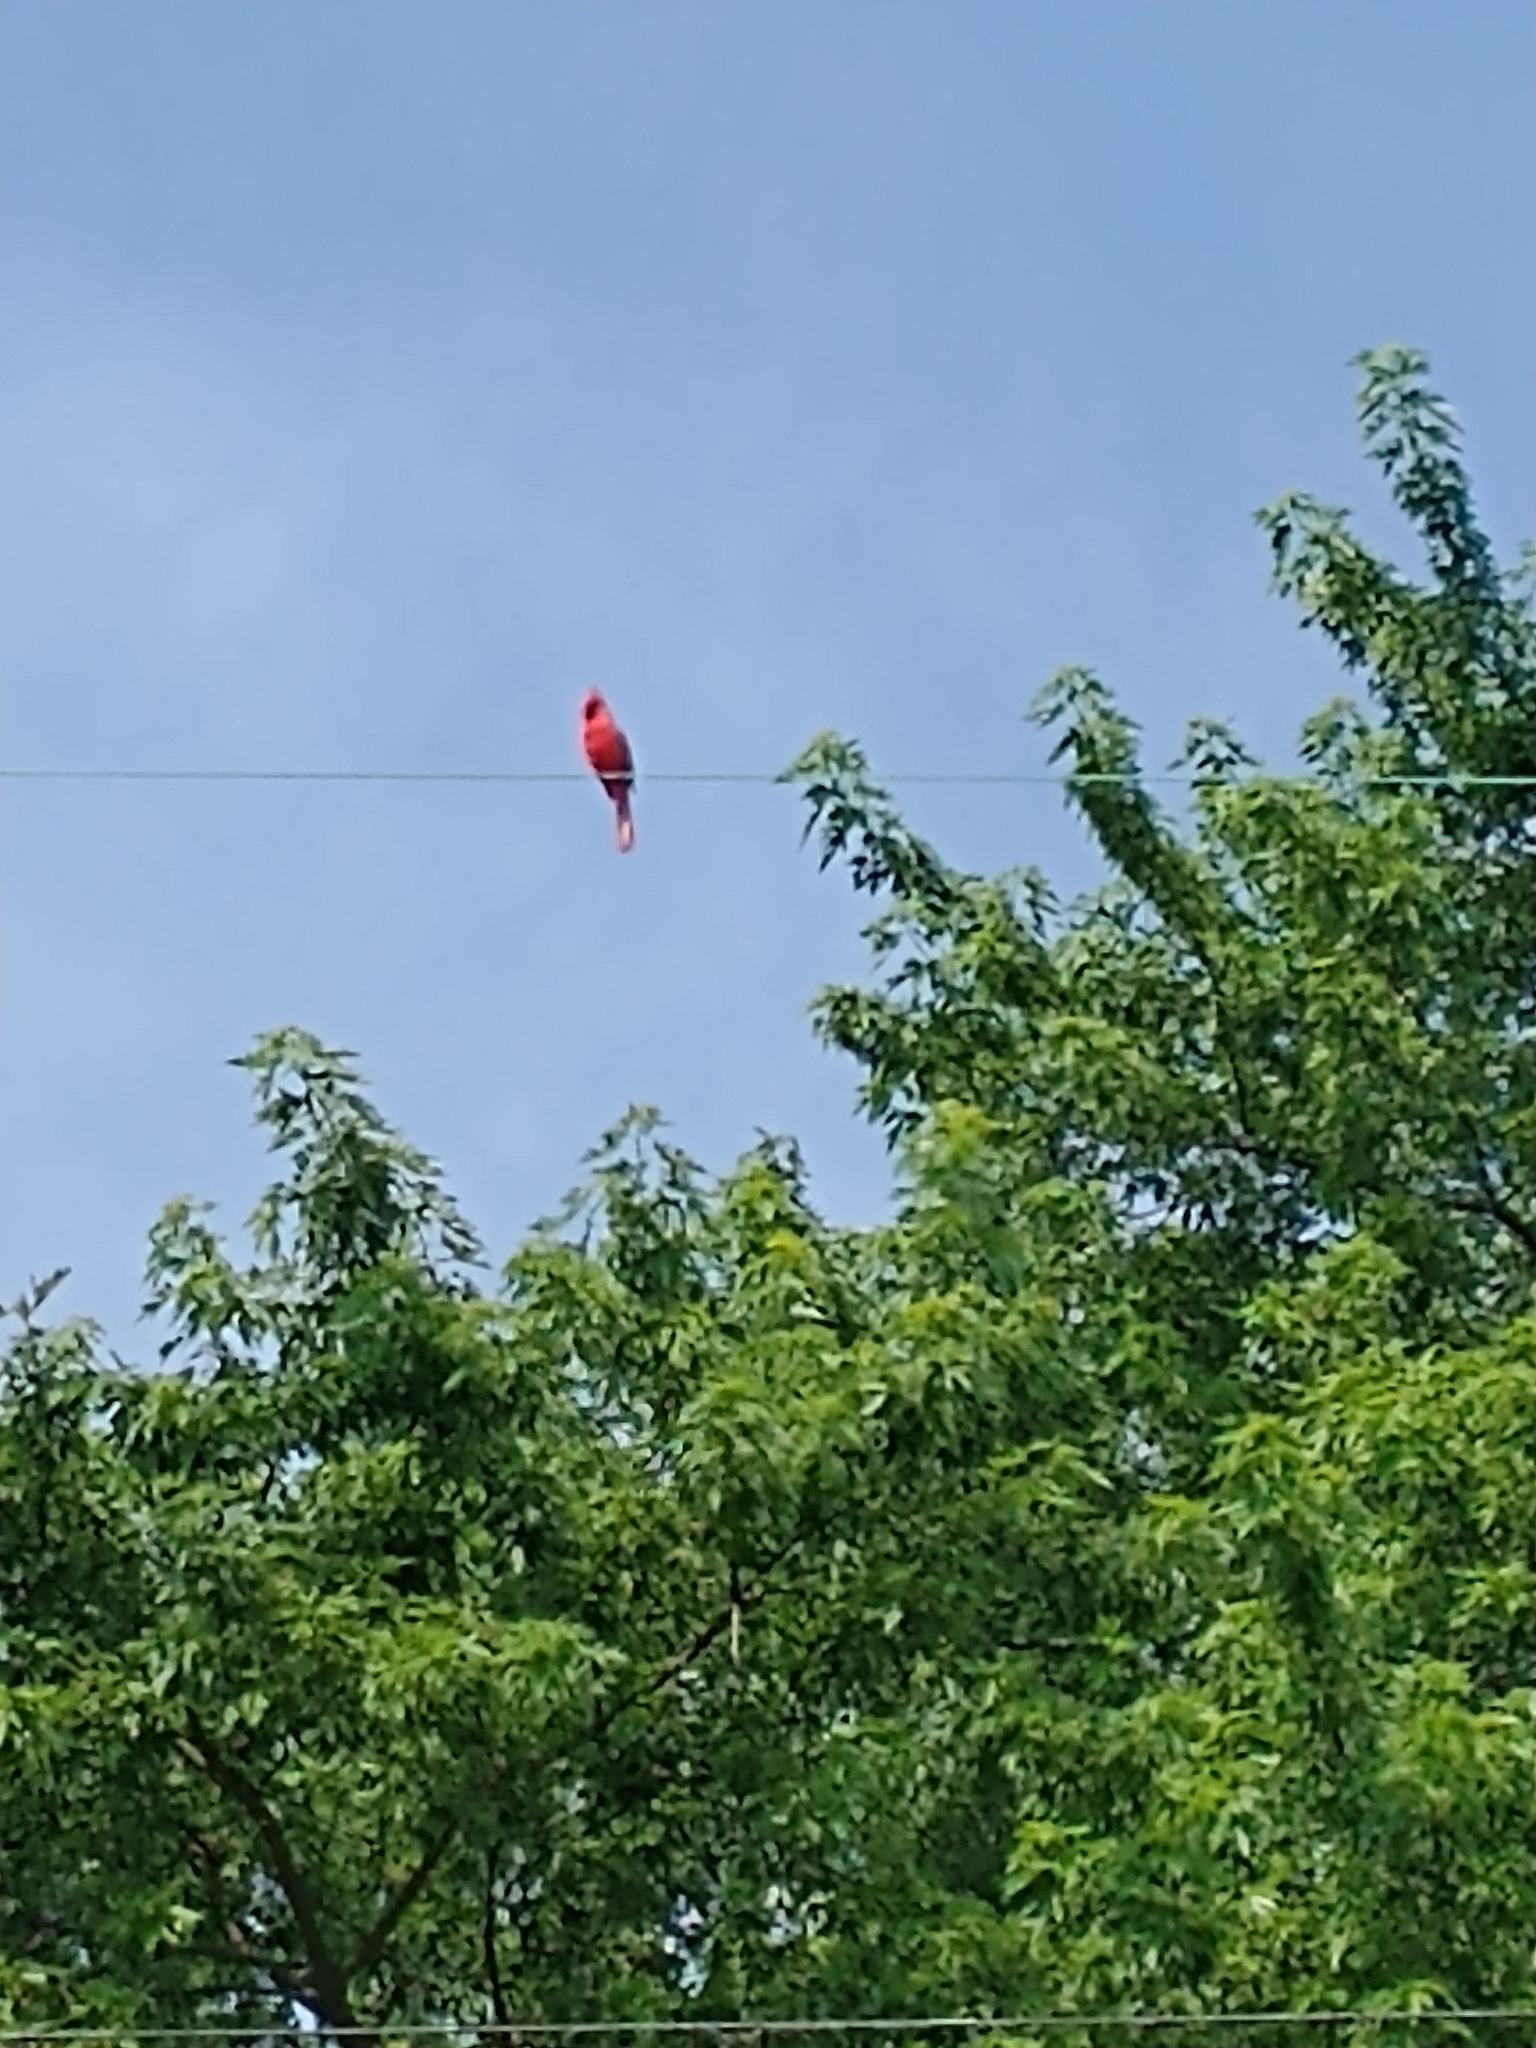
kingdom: Animalia
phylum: Chordata
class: Aves
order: Passeriformes
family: Cardinalidae
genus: Cardinalis
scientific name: Cardinalis cardinalis
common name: Northern cardinal
